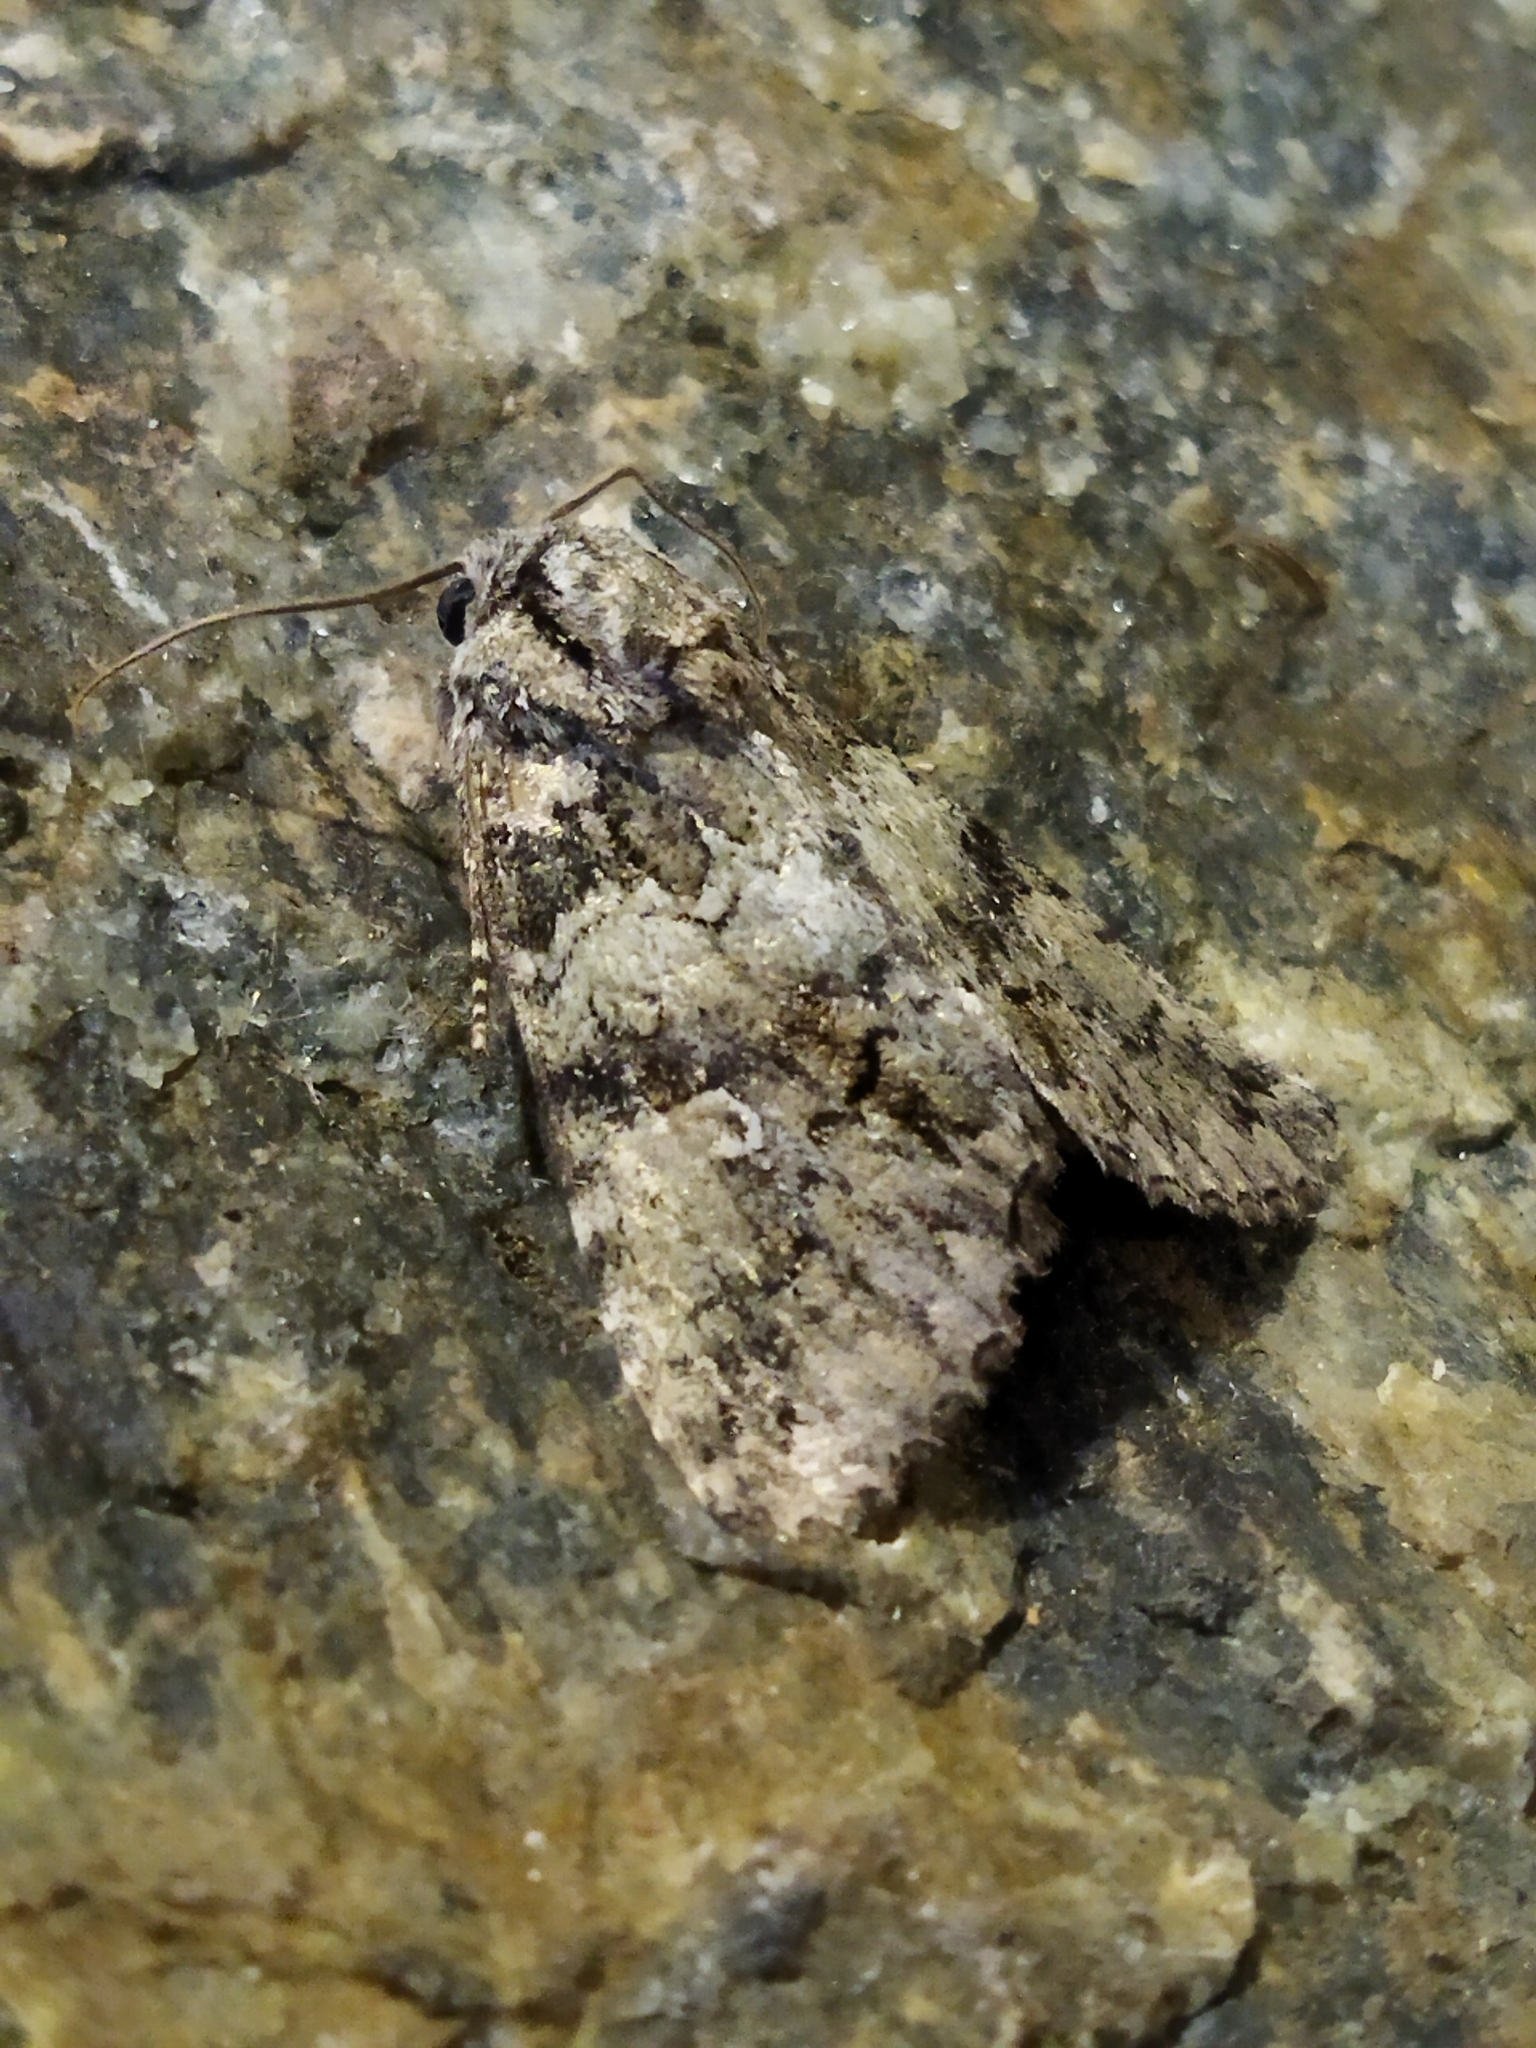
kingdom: Animalia
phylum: Arthropoda
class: Insecta
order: Lepidoptera
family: Noctuidae
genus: Olivenebula
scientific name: Olivenebula subsericata
